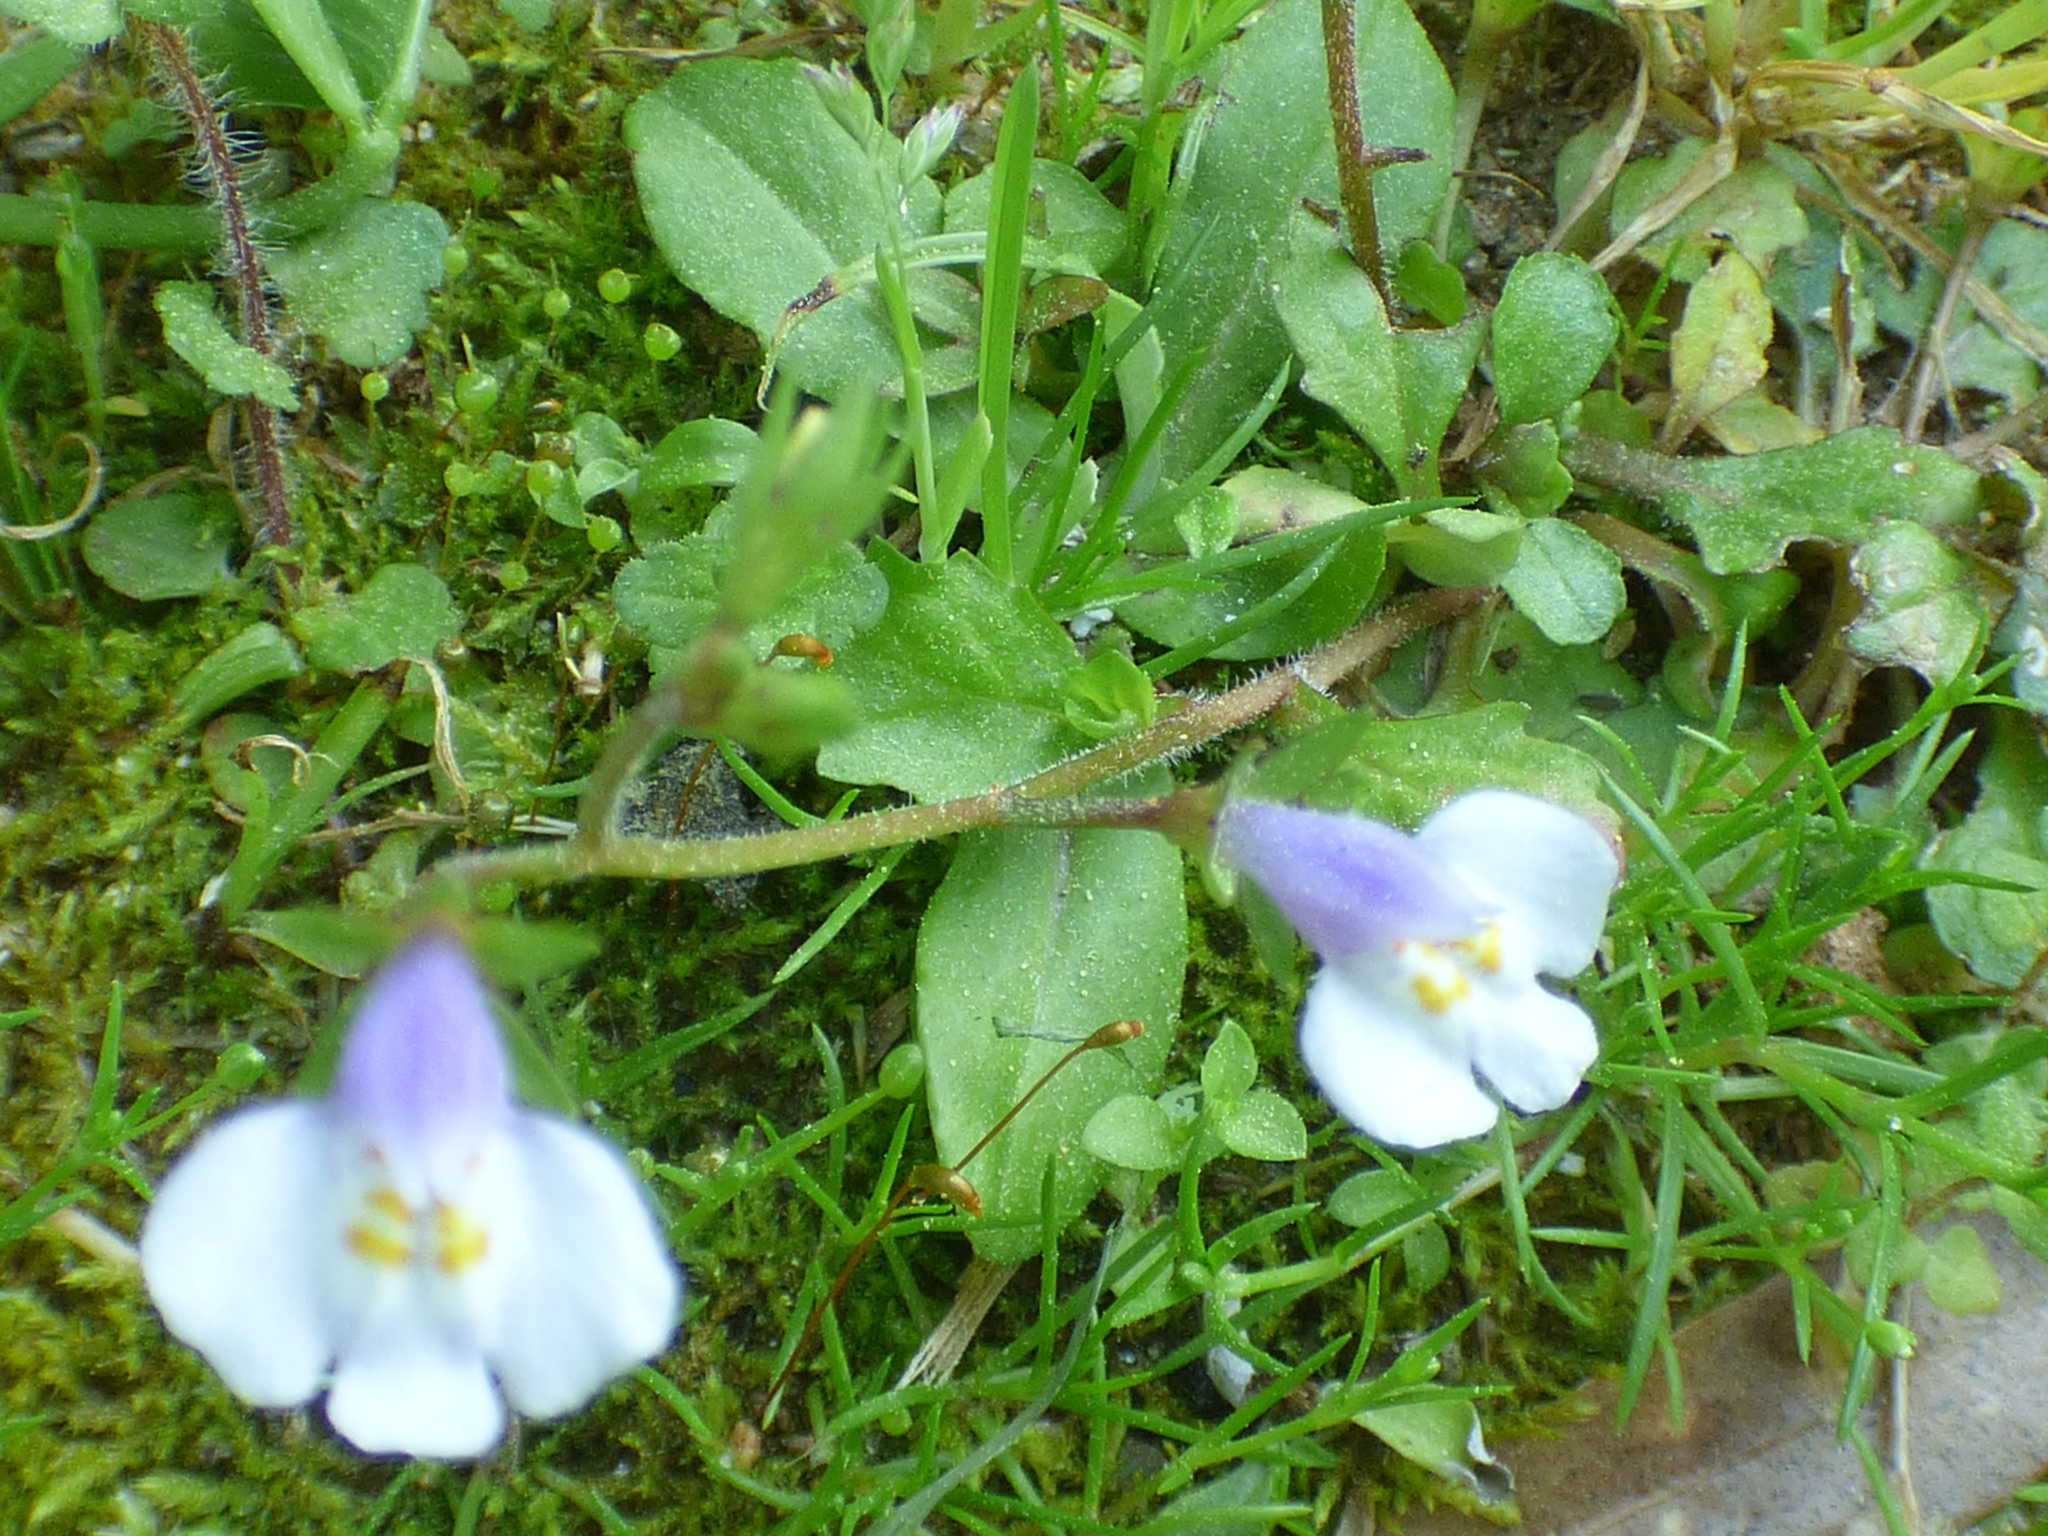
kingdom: Plantae
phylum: Tracheophyta
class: Magnoliopsida
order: Lamiales
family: Mazaceae
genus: Mazus
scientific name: Mazus pumilus
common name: Japanese mazus
